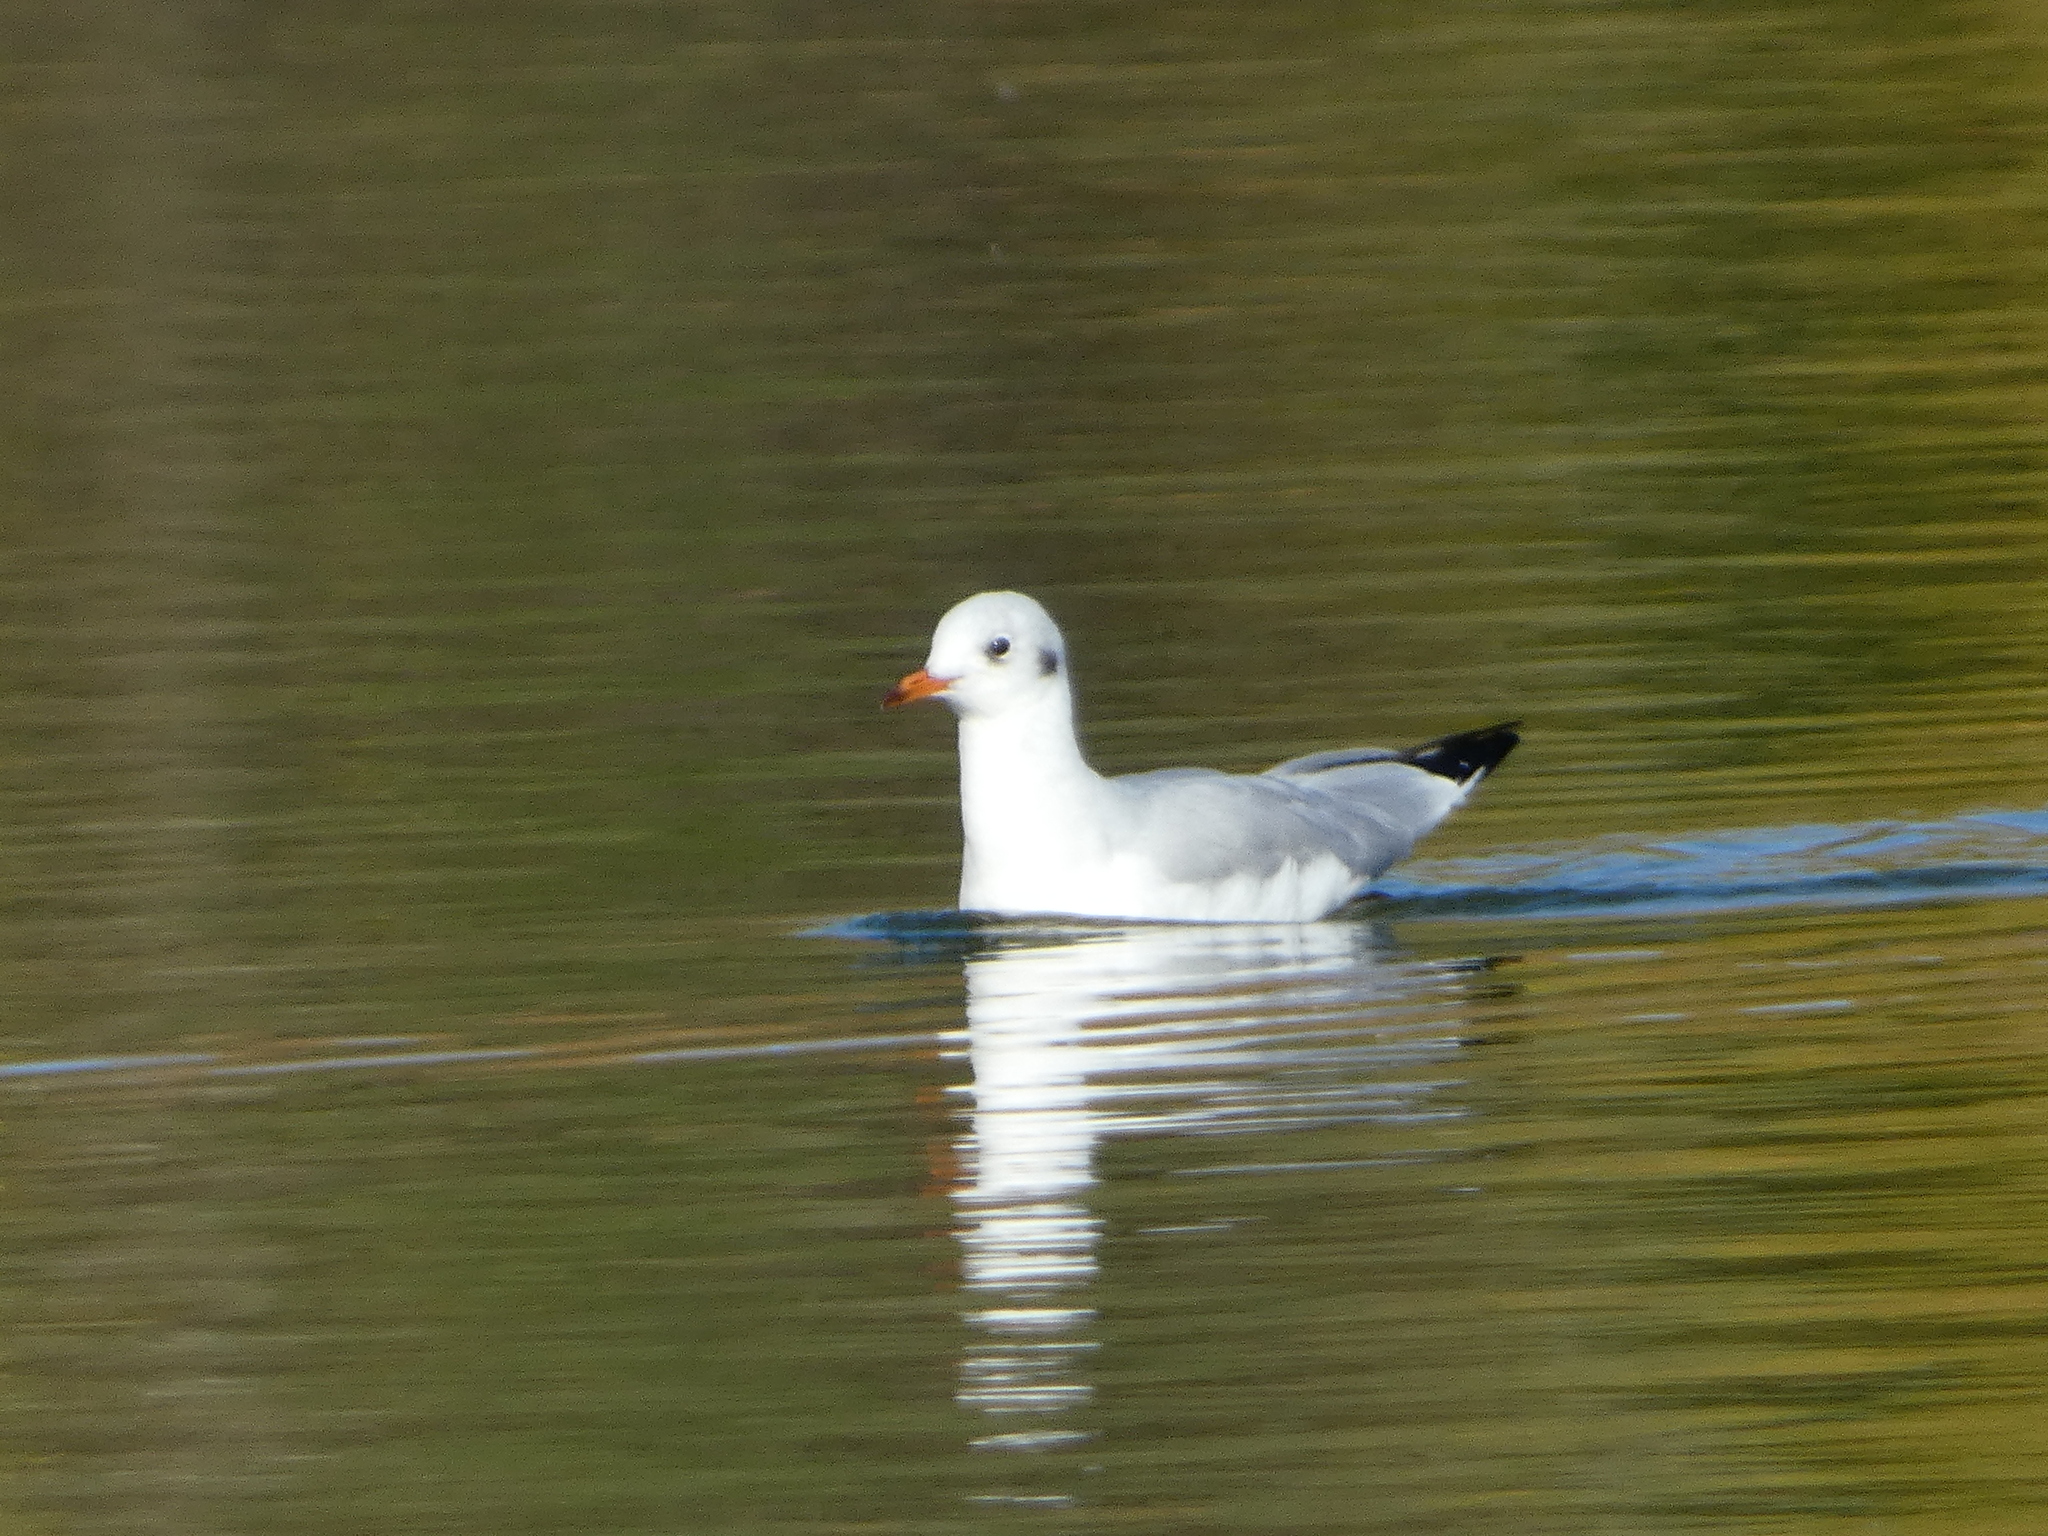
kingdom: Animalia
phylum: Chordata
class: Aves
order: Charadriiformes
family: Laridae
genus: Chroicocephalus
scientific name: Chroicocephalus ridibundus
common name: Black-headed gull
